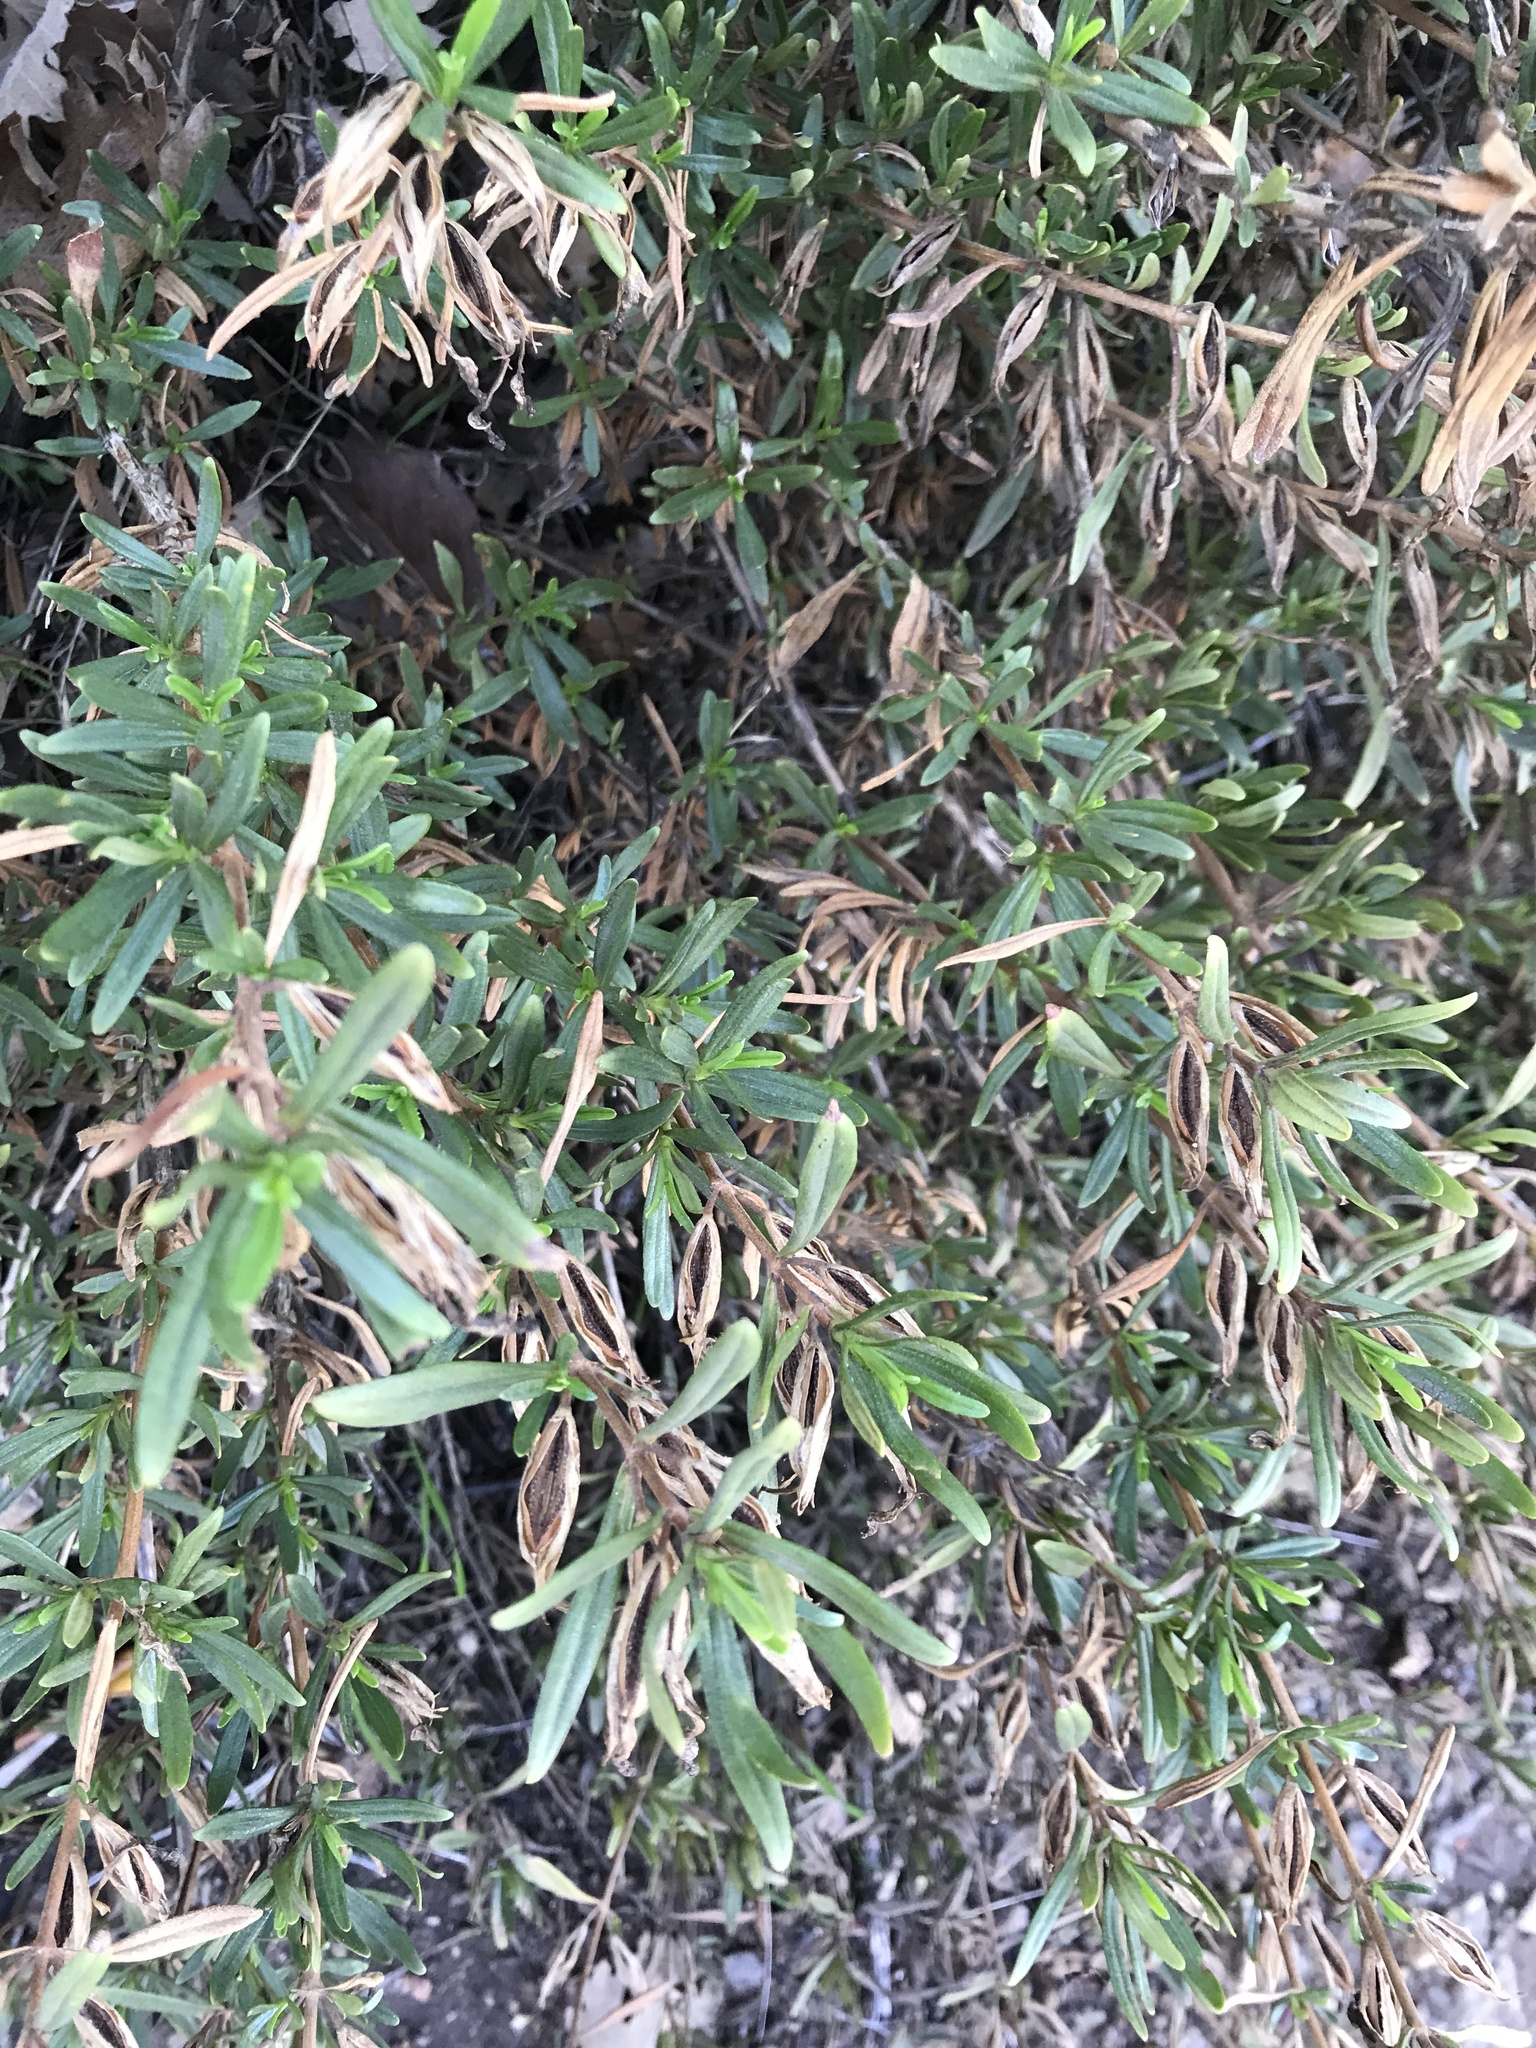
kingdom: Plantae
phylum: Tracheophyta
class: Magnoliopsida
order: Lamiales
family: Phrymaceae
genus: Diplacus
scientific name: Diplacus linearis
